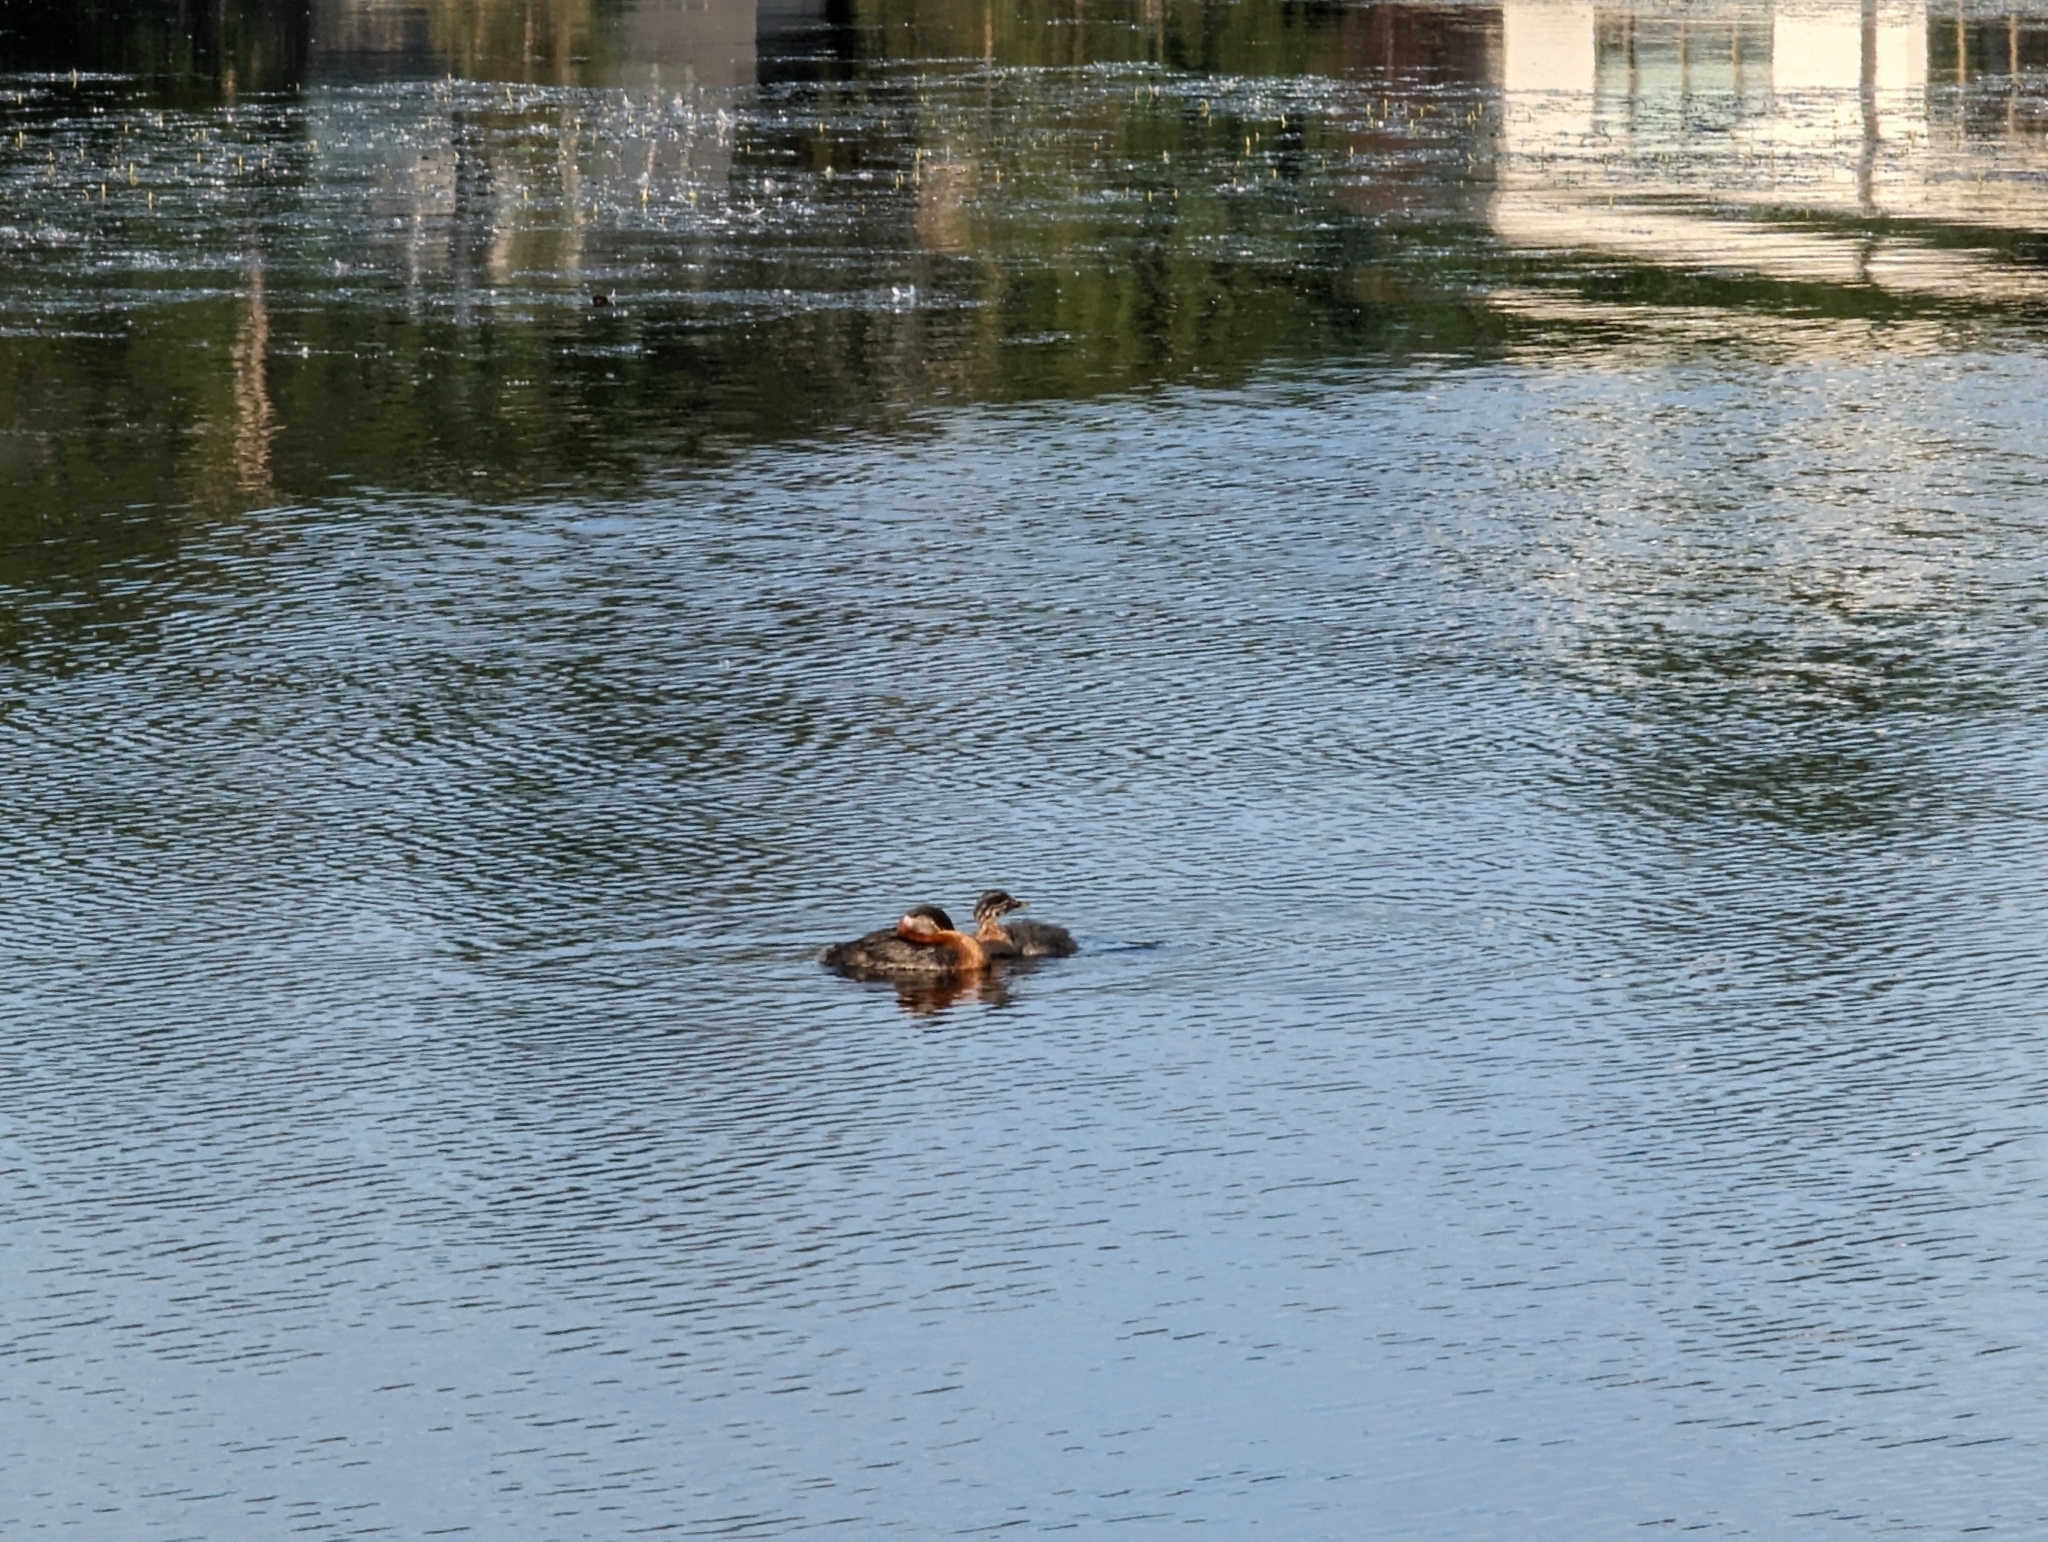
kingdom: Animalia
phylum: Chordata
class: Aves
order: Podicipediformes
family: Podicipedidae
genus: Podiceps
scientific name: Podiceps grisegena
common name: Red-necked grebe
